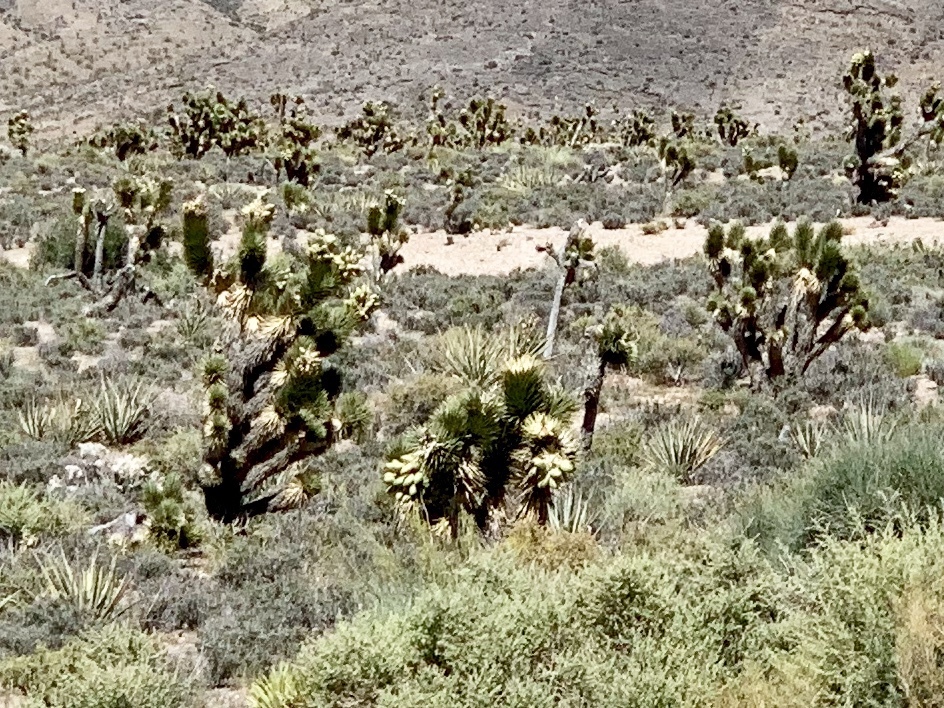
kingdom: Plantae
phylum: Tracheophyta
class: Liliopsida
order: Asparagales
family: Asparagaceae
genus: Yucca
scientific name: Yucca brevifolia
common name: Joshua tree
